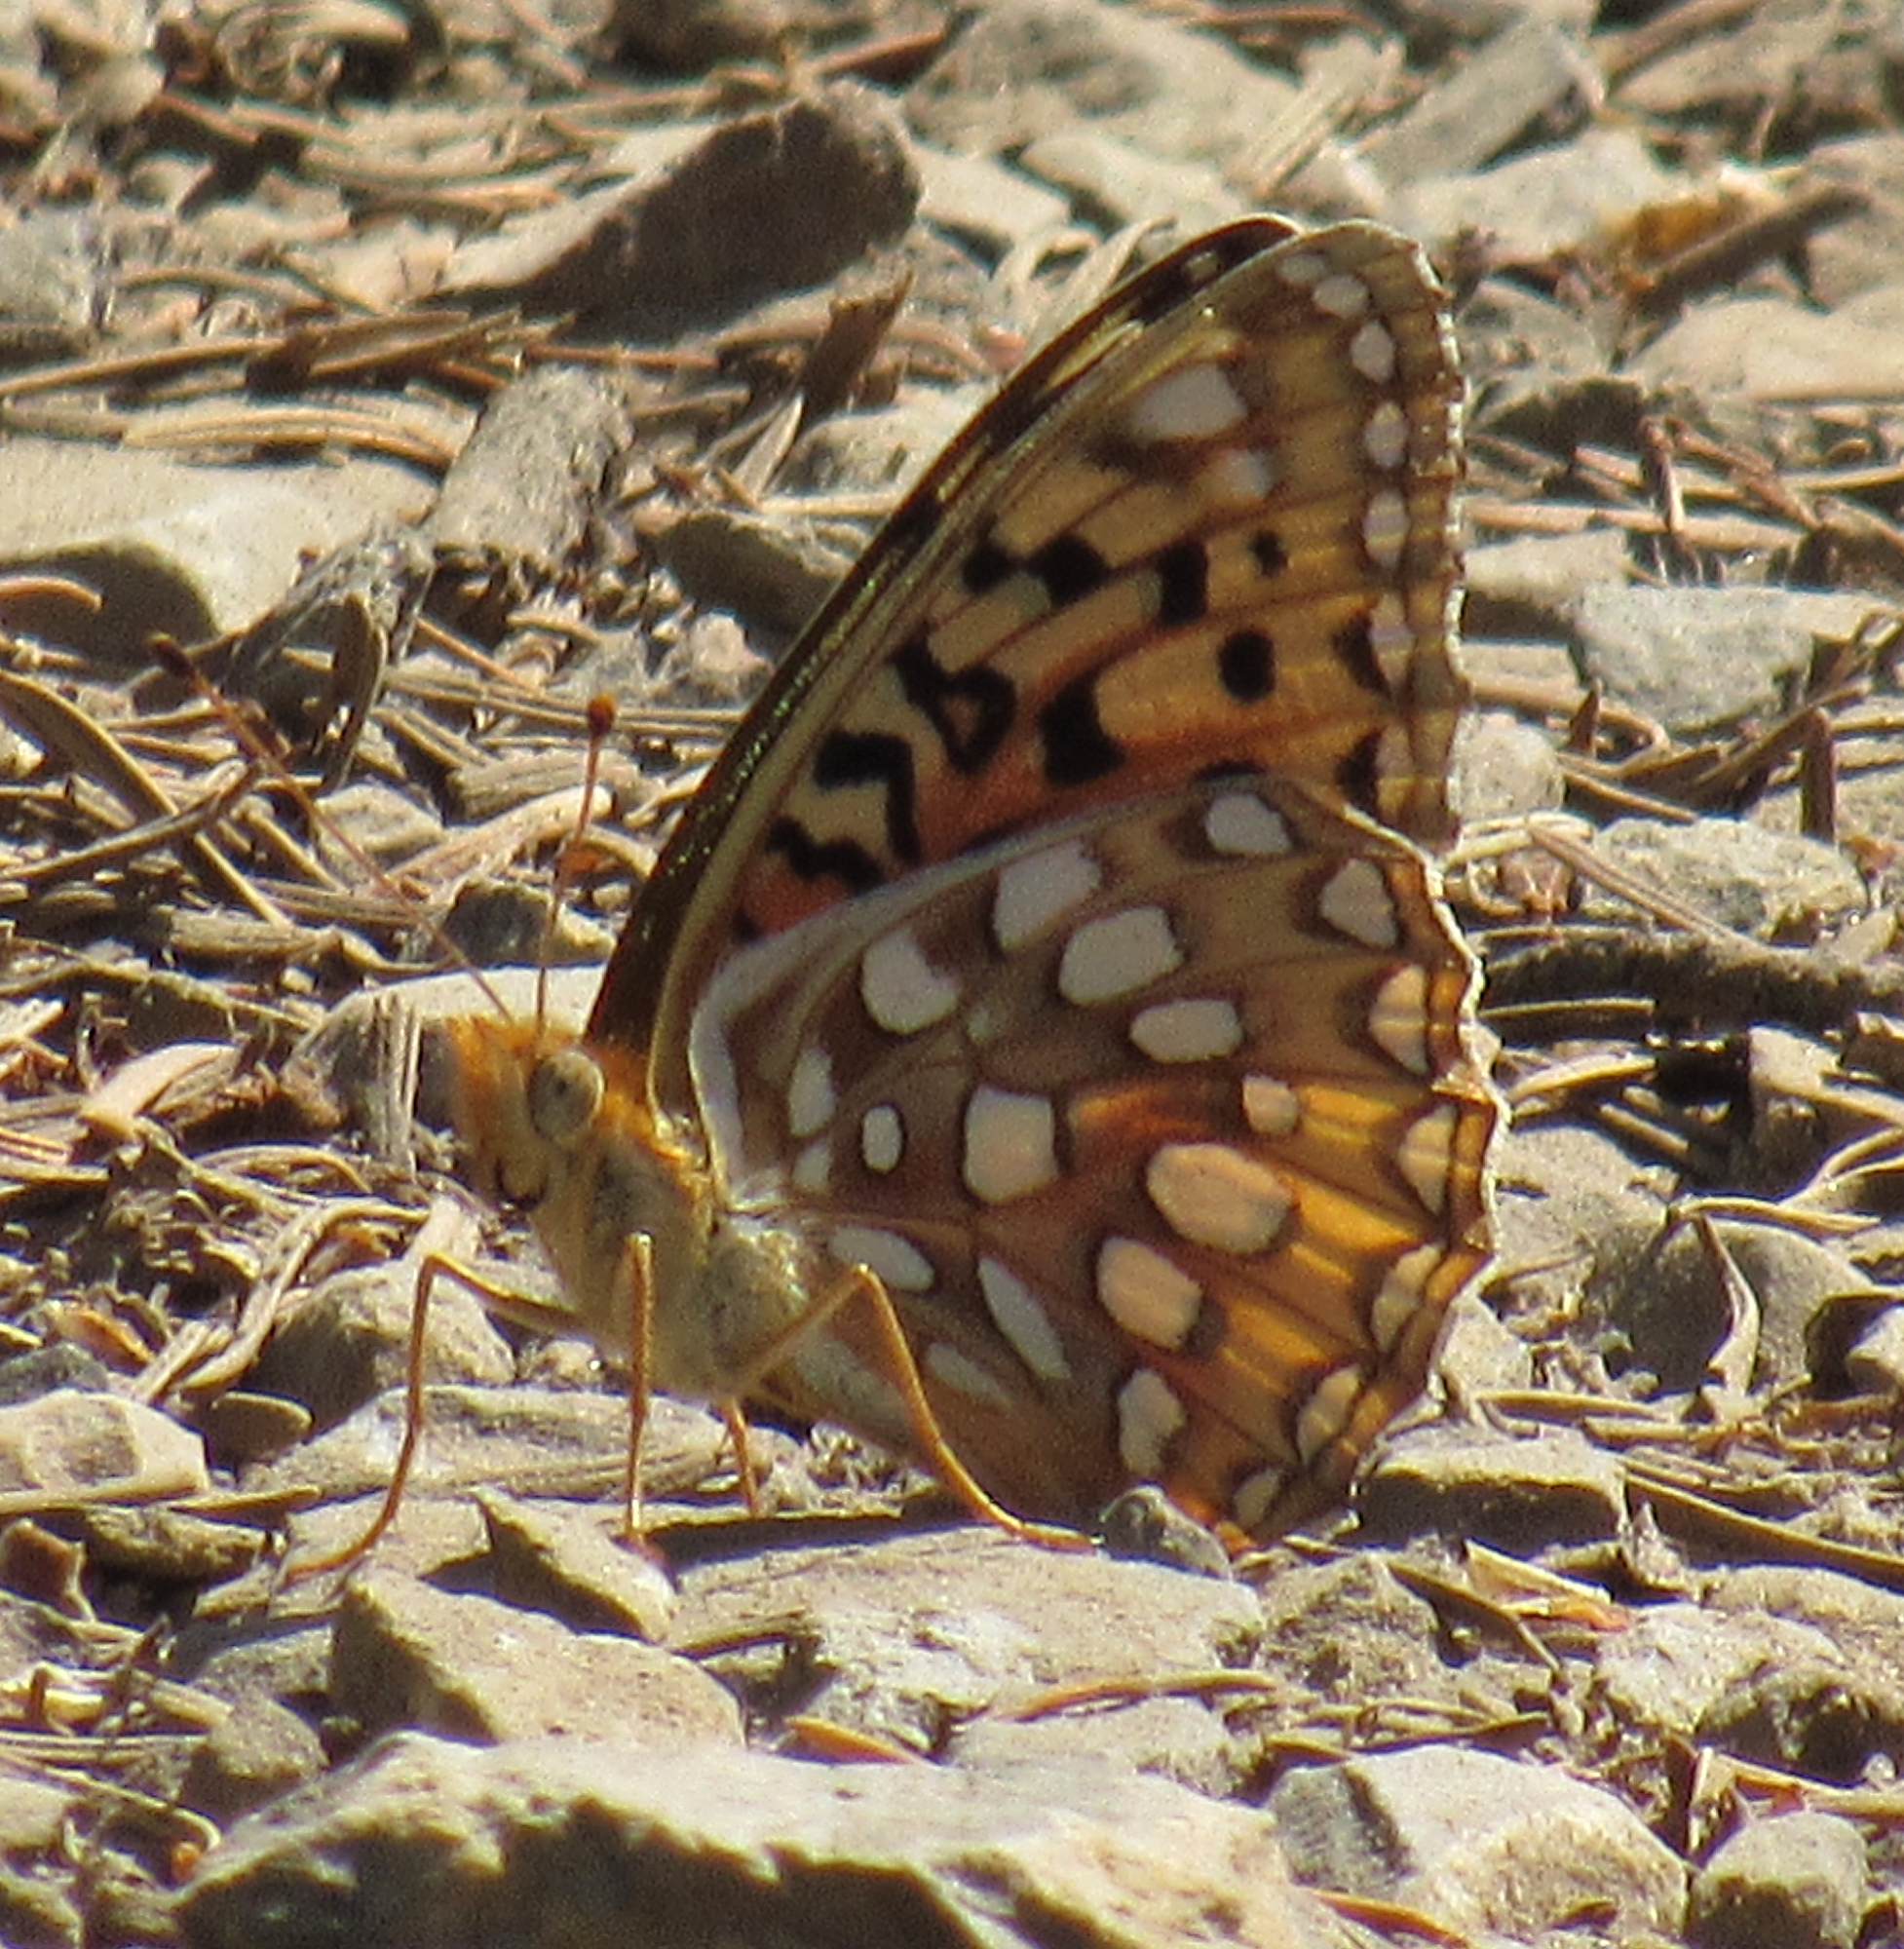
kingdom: Animalia
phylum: Arthropoda
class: Insecta
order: Lepidoptera
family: Nymphalidae
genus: Speyeria
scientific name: Speyeria zerene
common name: Zerene fritillary
